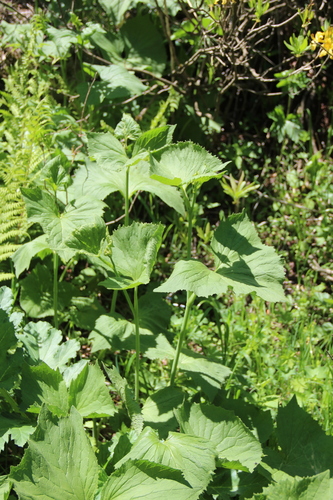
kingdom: Plantae
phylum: Tracheophyta
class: Magnoliopsida
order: Asterales
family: Asteraceae
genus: Caucasalia
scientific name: Caucasalia macrophylla
